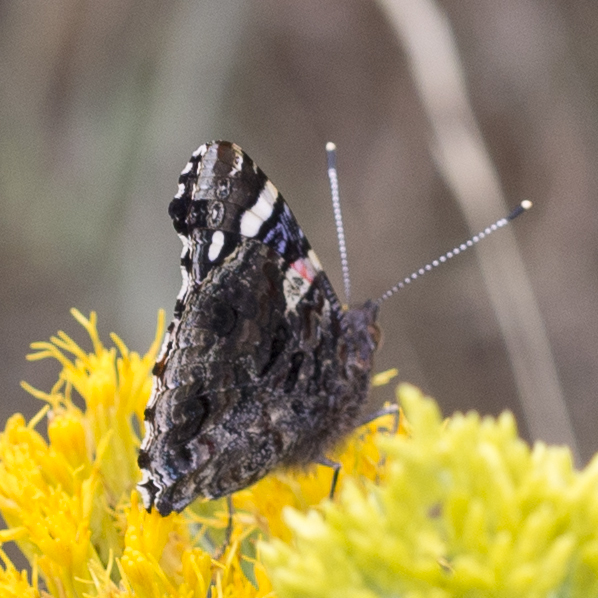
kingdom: Animalia
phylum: Arthropoda
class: Insecta
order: Lepidoptera
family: Nymphalidae
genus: Vanessa
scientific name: Vanessa atalanta
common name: Red admiral
